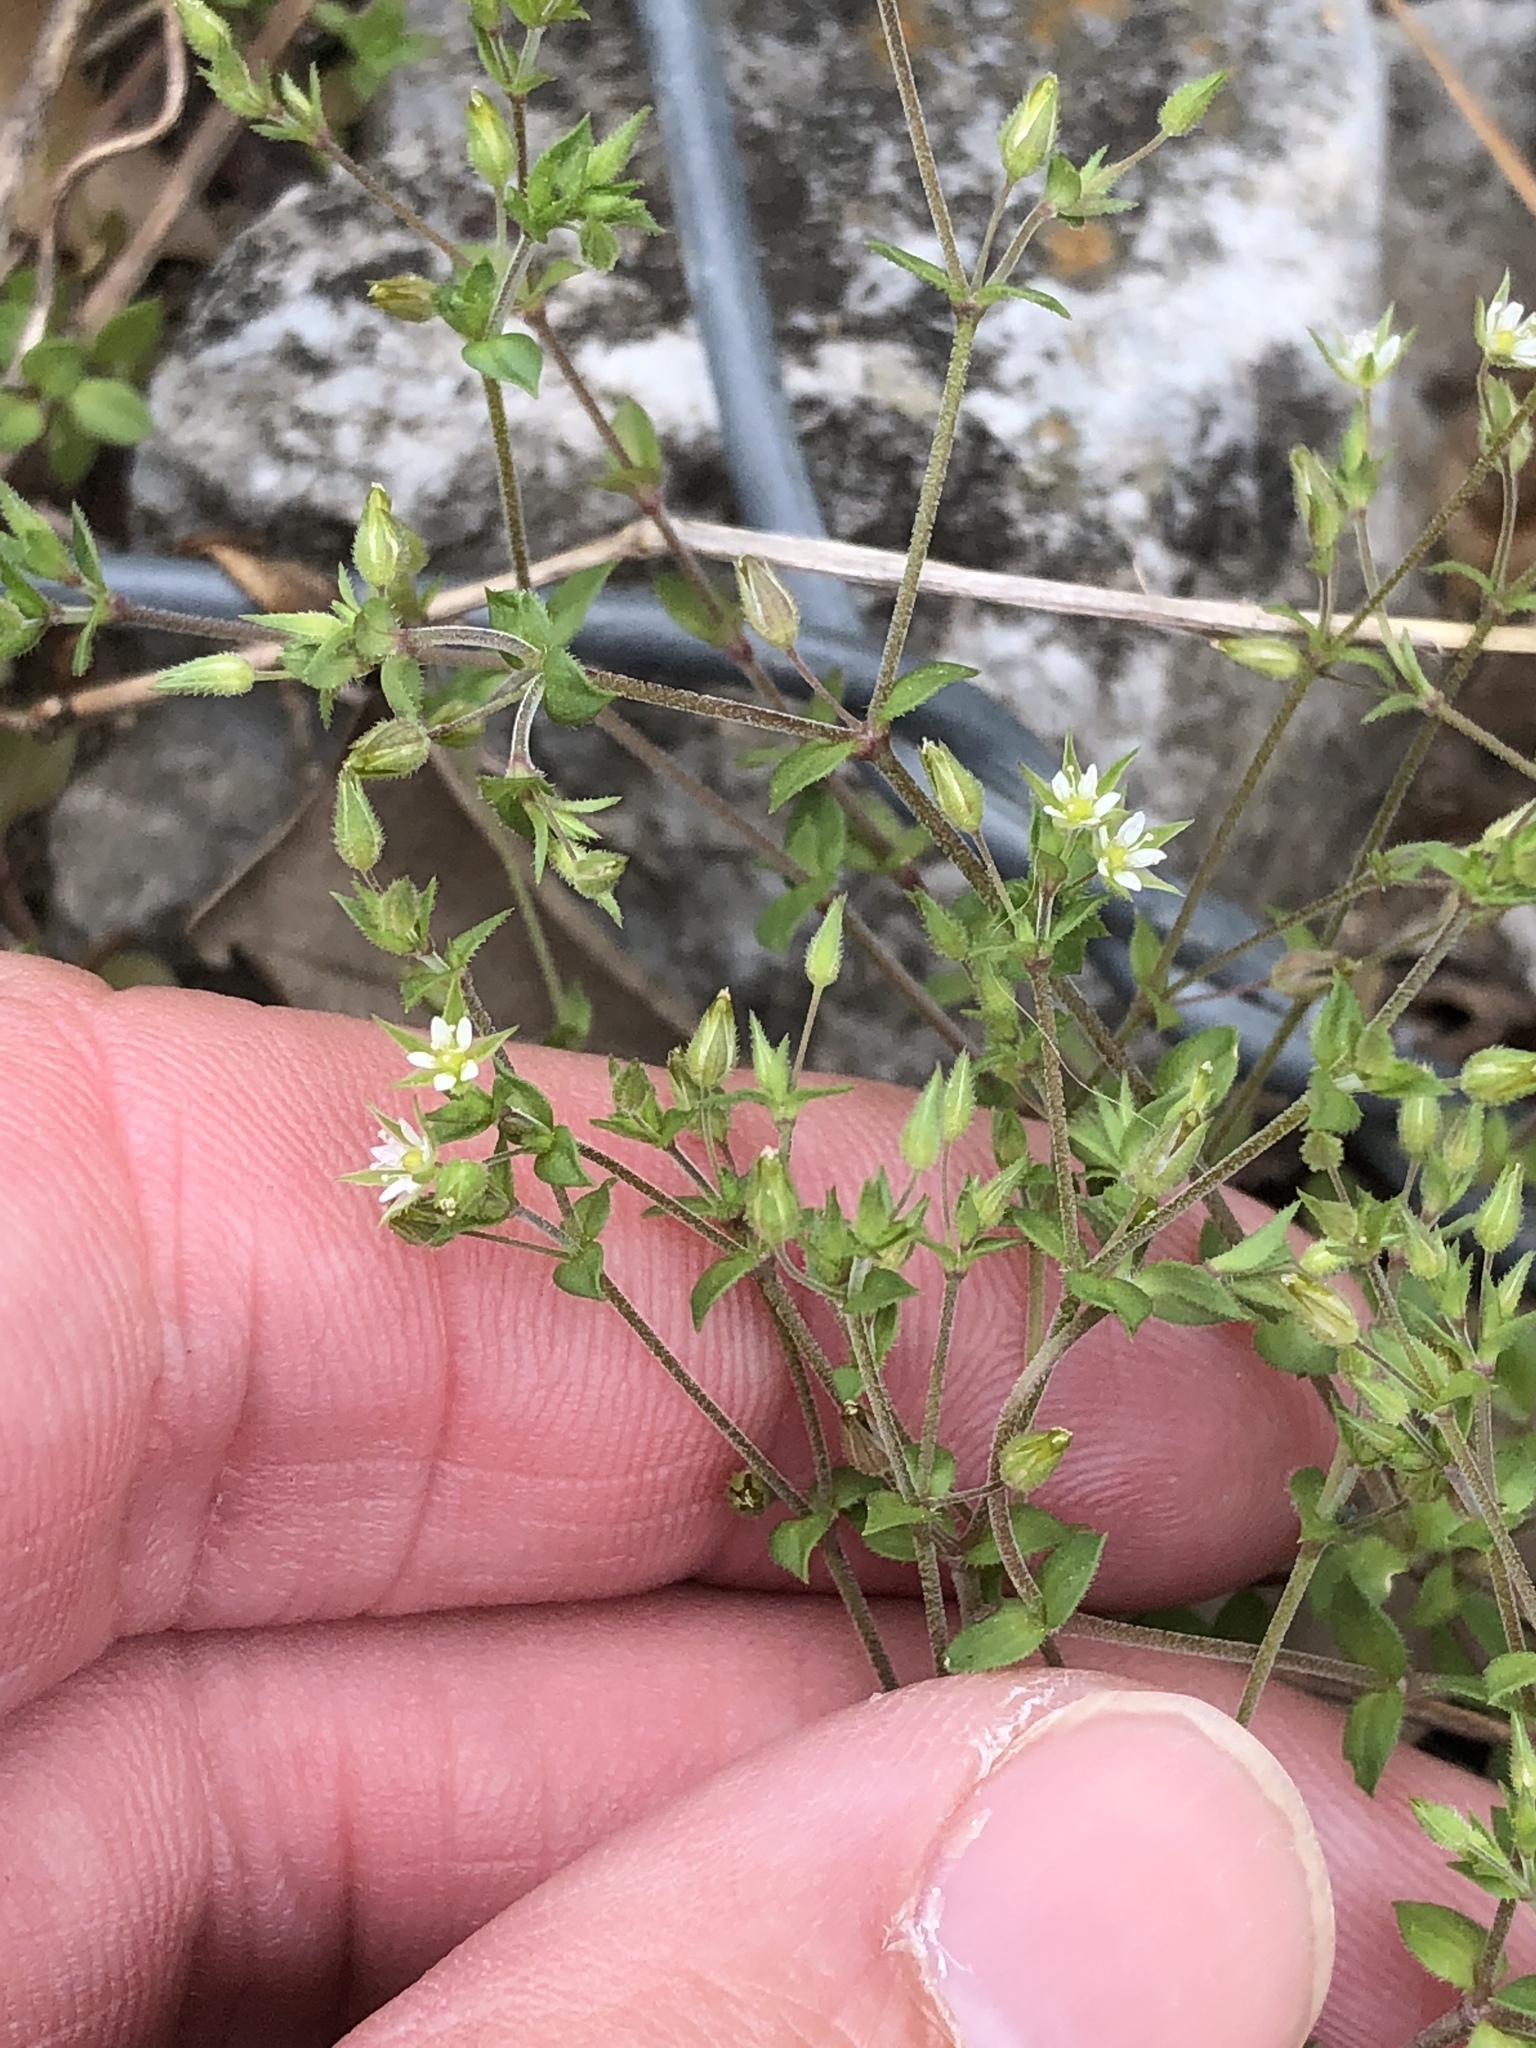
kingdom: Plantae
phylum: Tracheophyta
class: Magnoliopsida
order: Caryophyllales
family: Caryophyllaceae
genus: Arenaria
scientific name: Arenaria serpyllifolia
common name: Thyme-leaved sandwort
